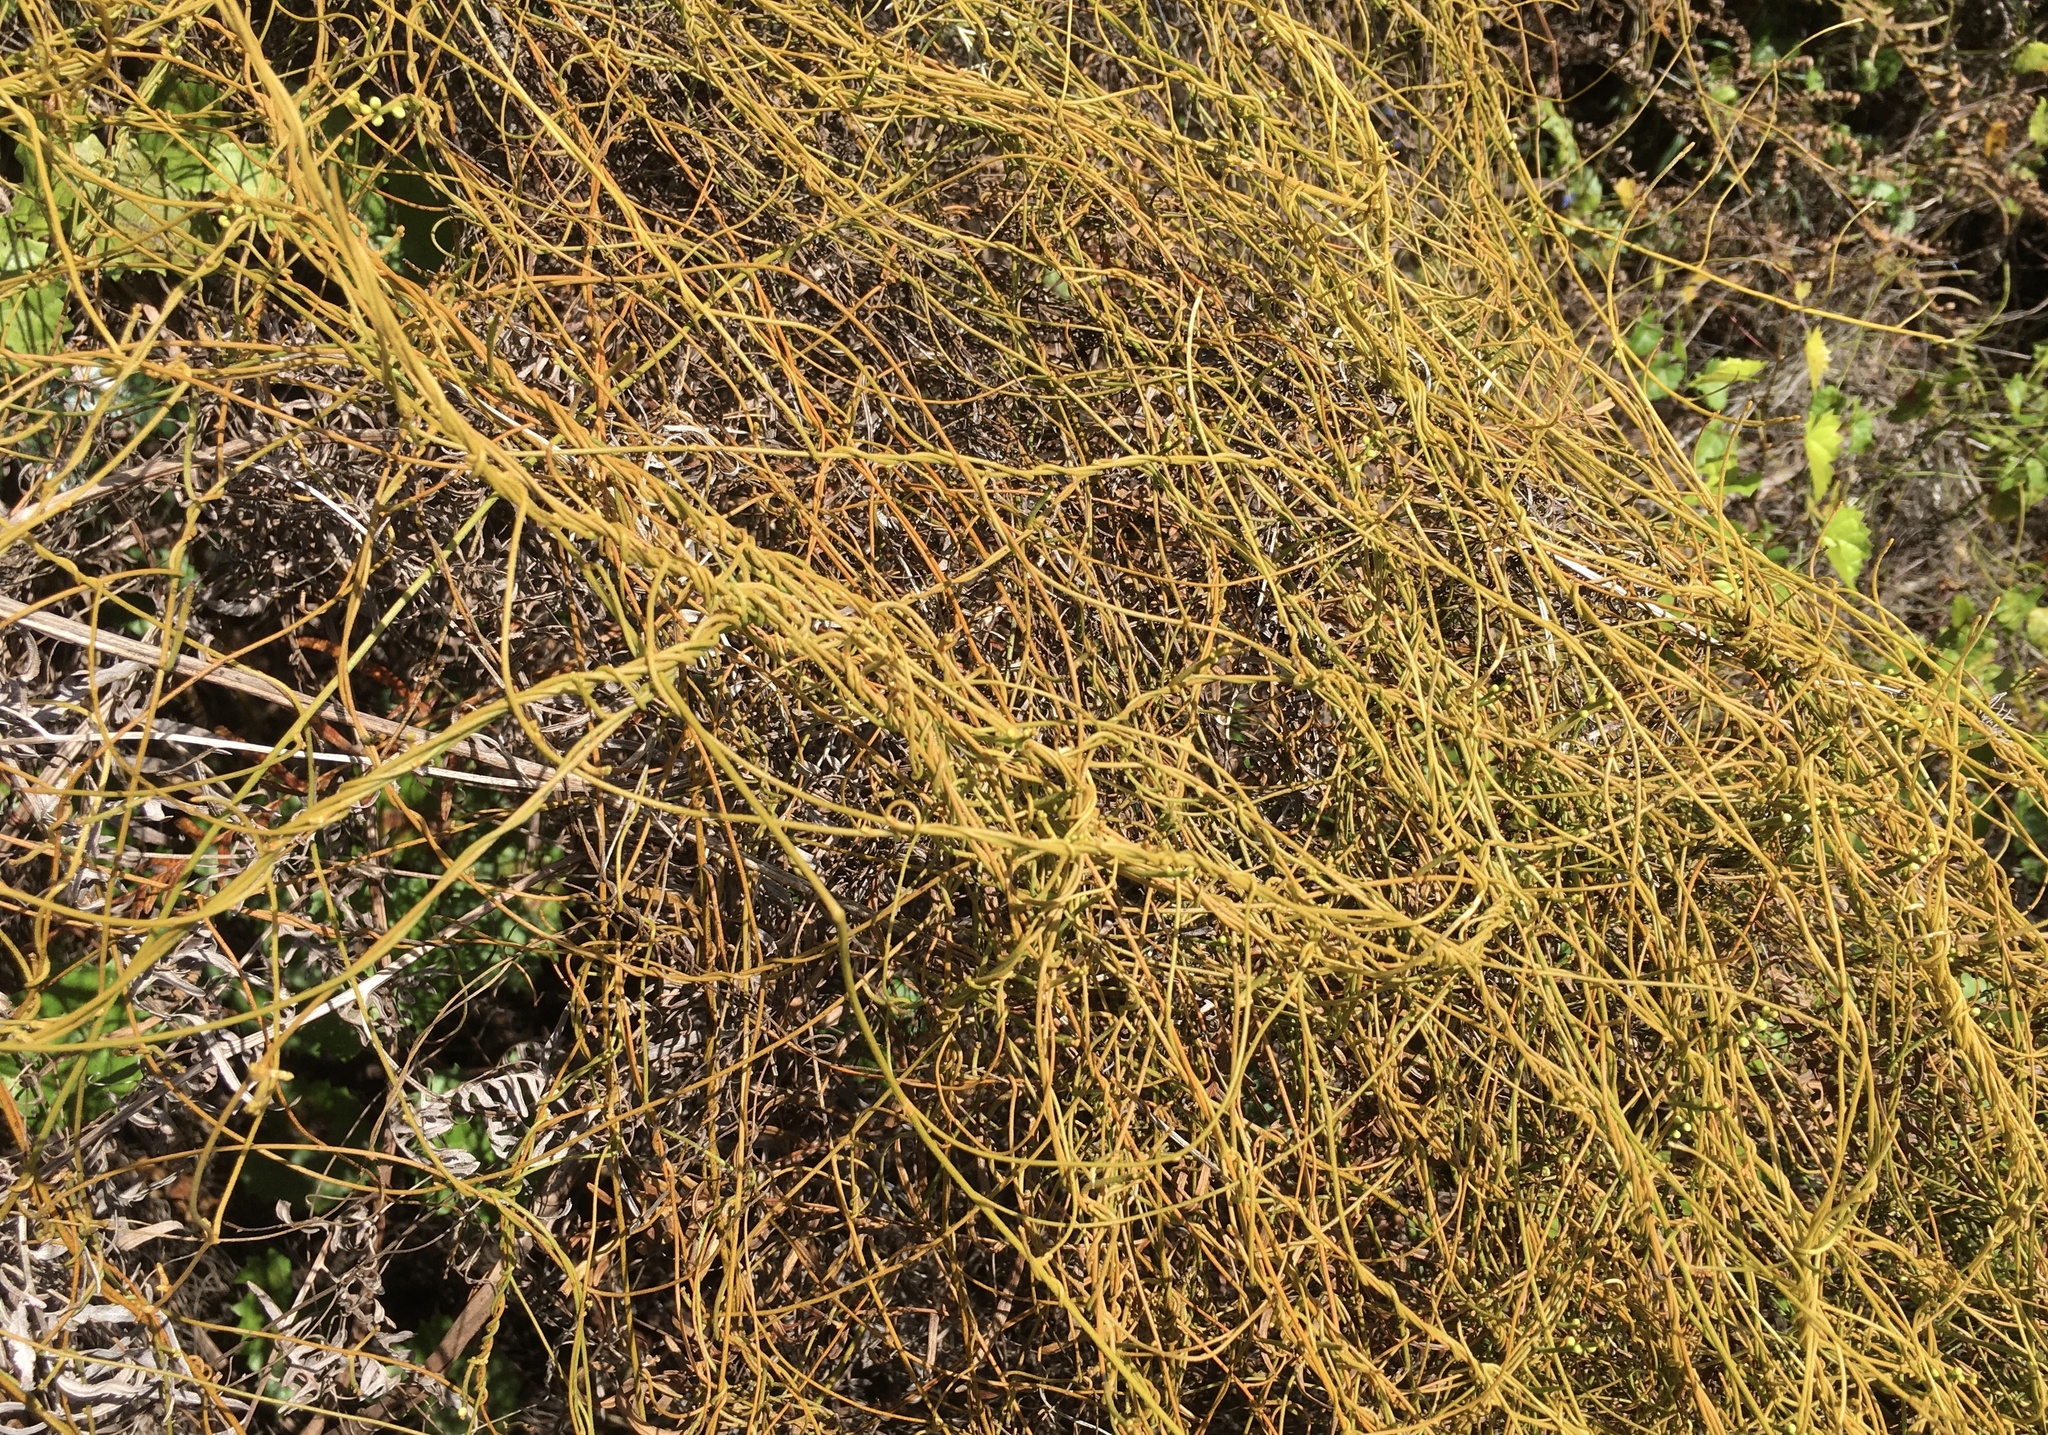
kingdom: Plantae
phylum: Tracheophyta
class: Magnoliopsida
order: Laurales
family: Lauraceae
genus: Cassytha
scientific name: Cassytha filiformis
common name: Dodder-laurel
